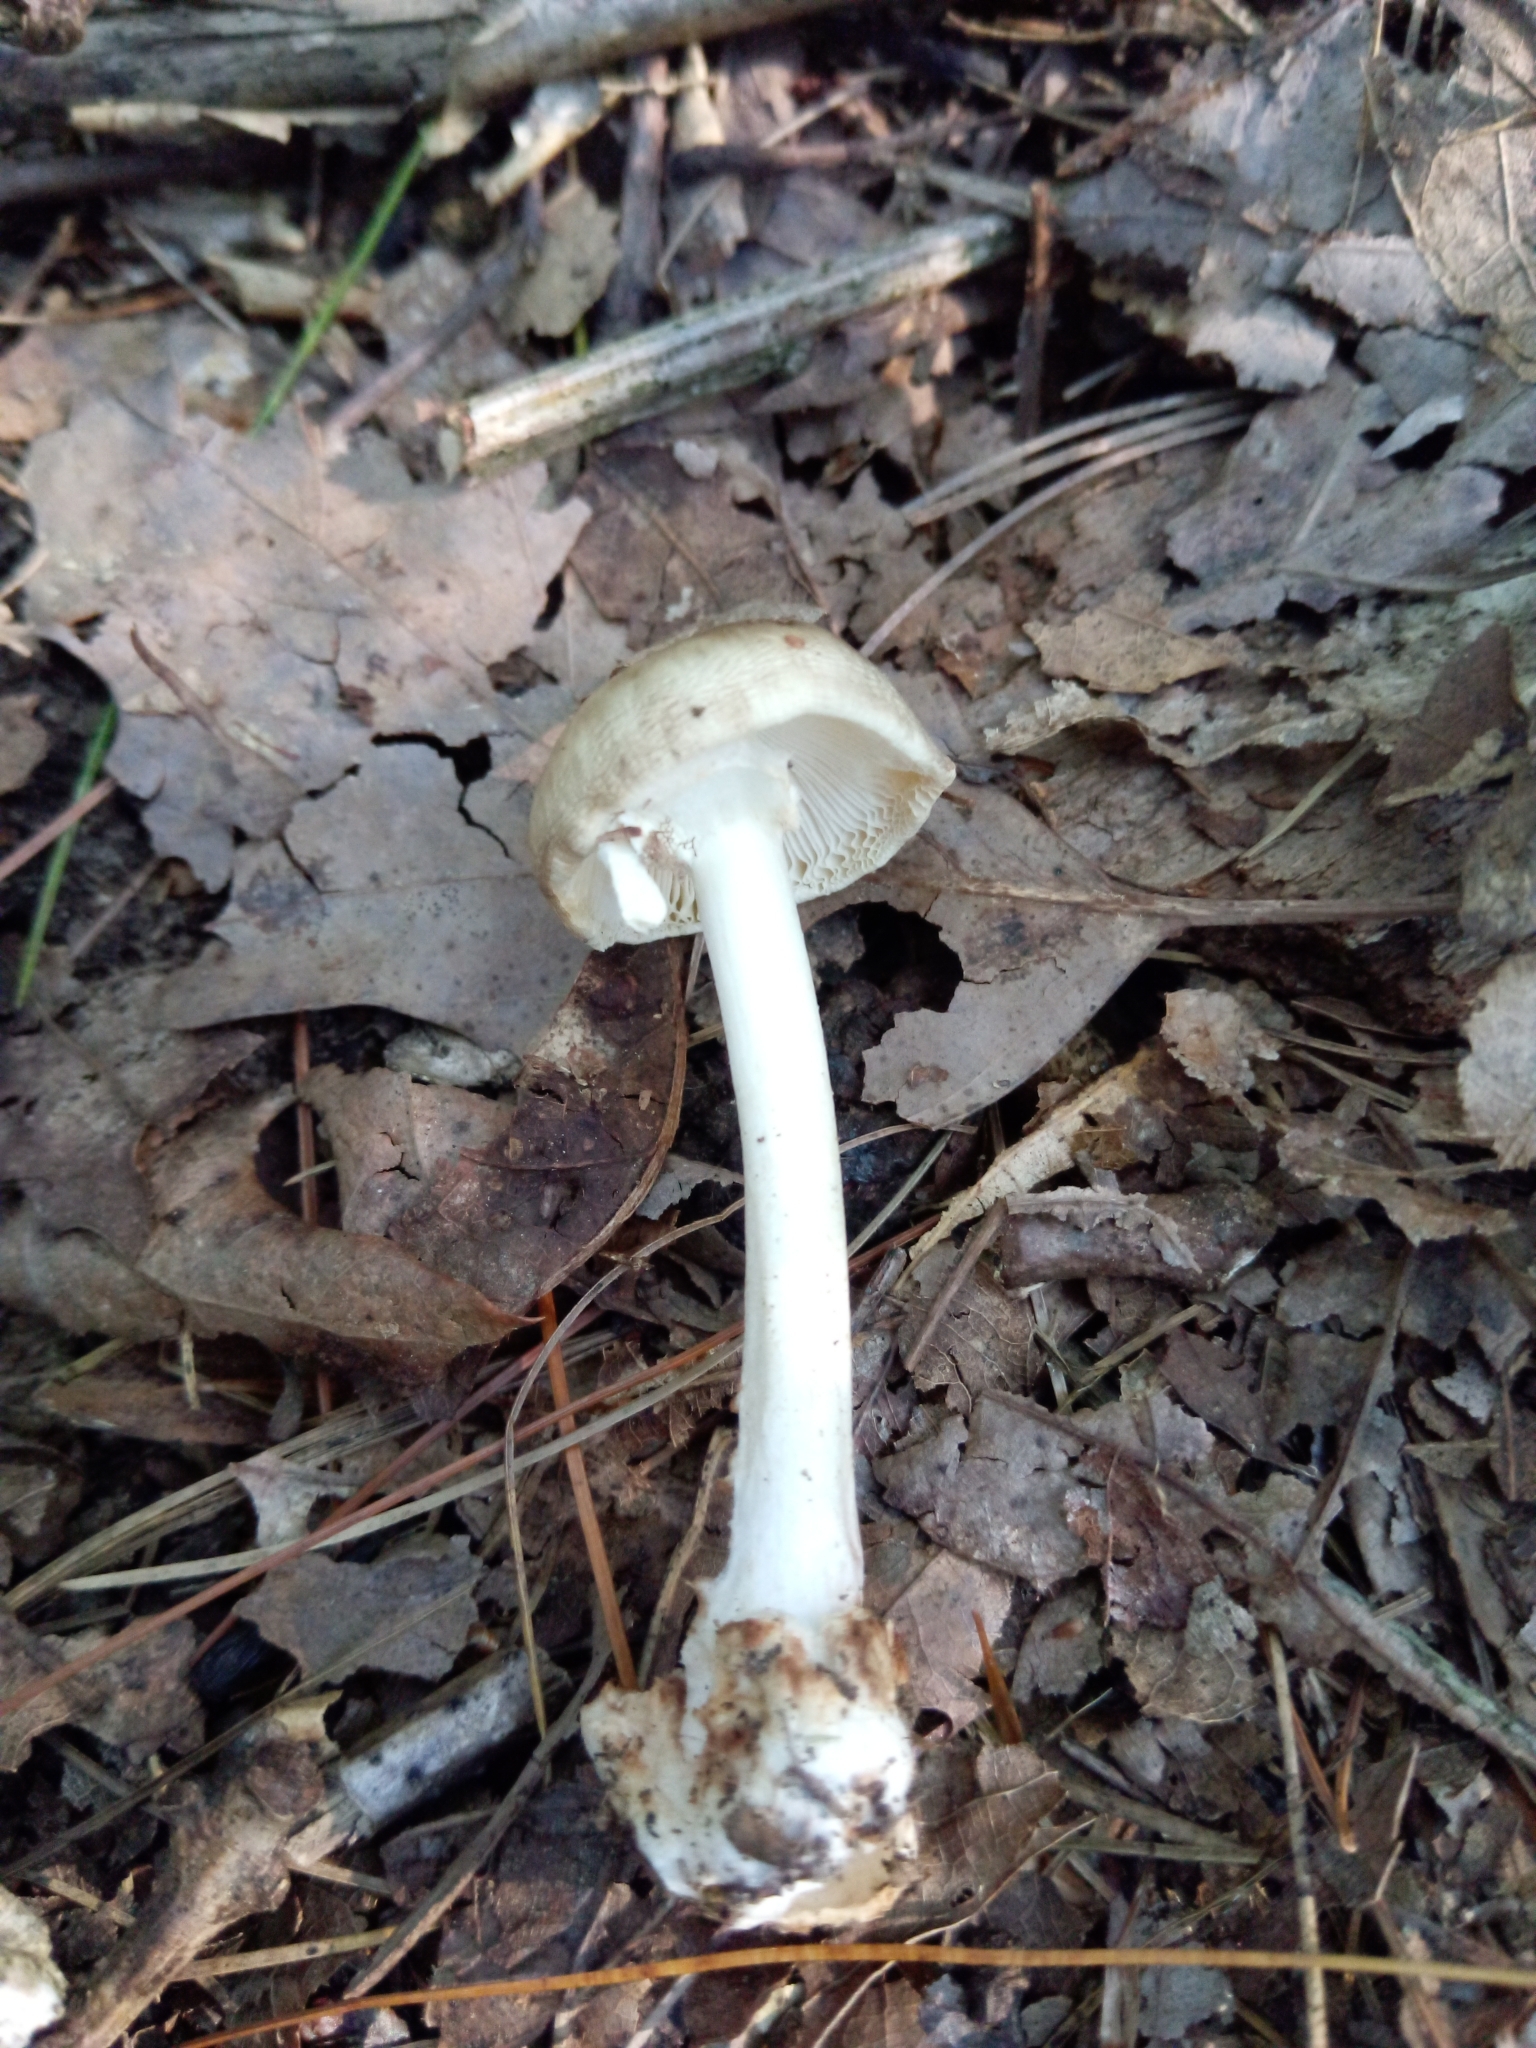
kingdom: Fungi
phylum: Basidiomycota
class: Agaricomycetes
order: Agaricales
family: Amanitaceae
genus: Amanita
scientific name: Amanita brunnescens
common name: Brown american star-footed amanita
